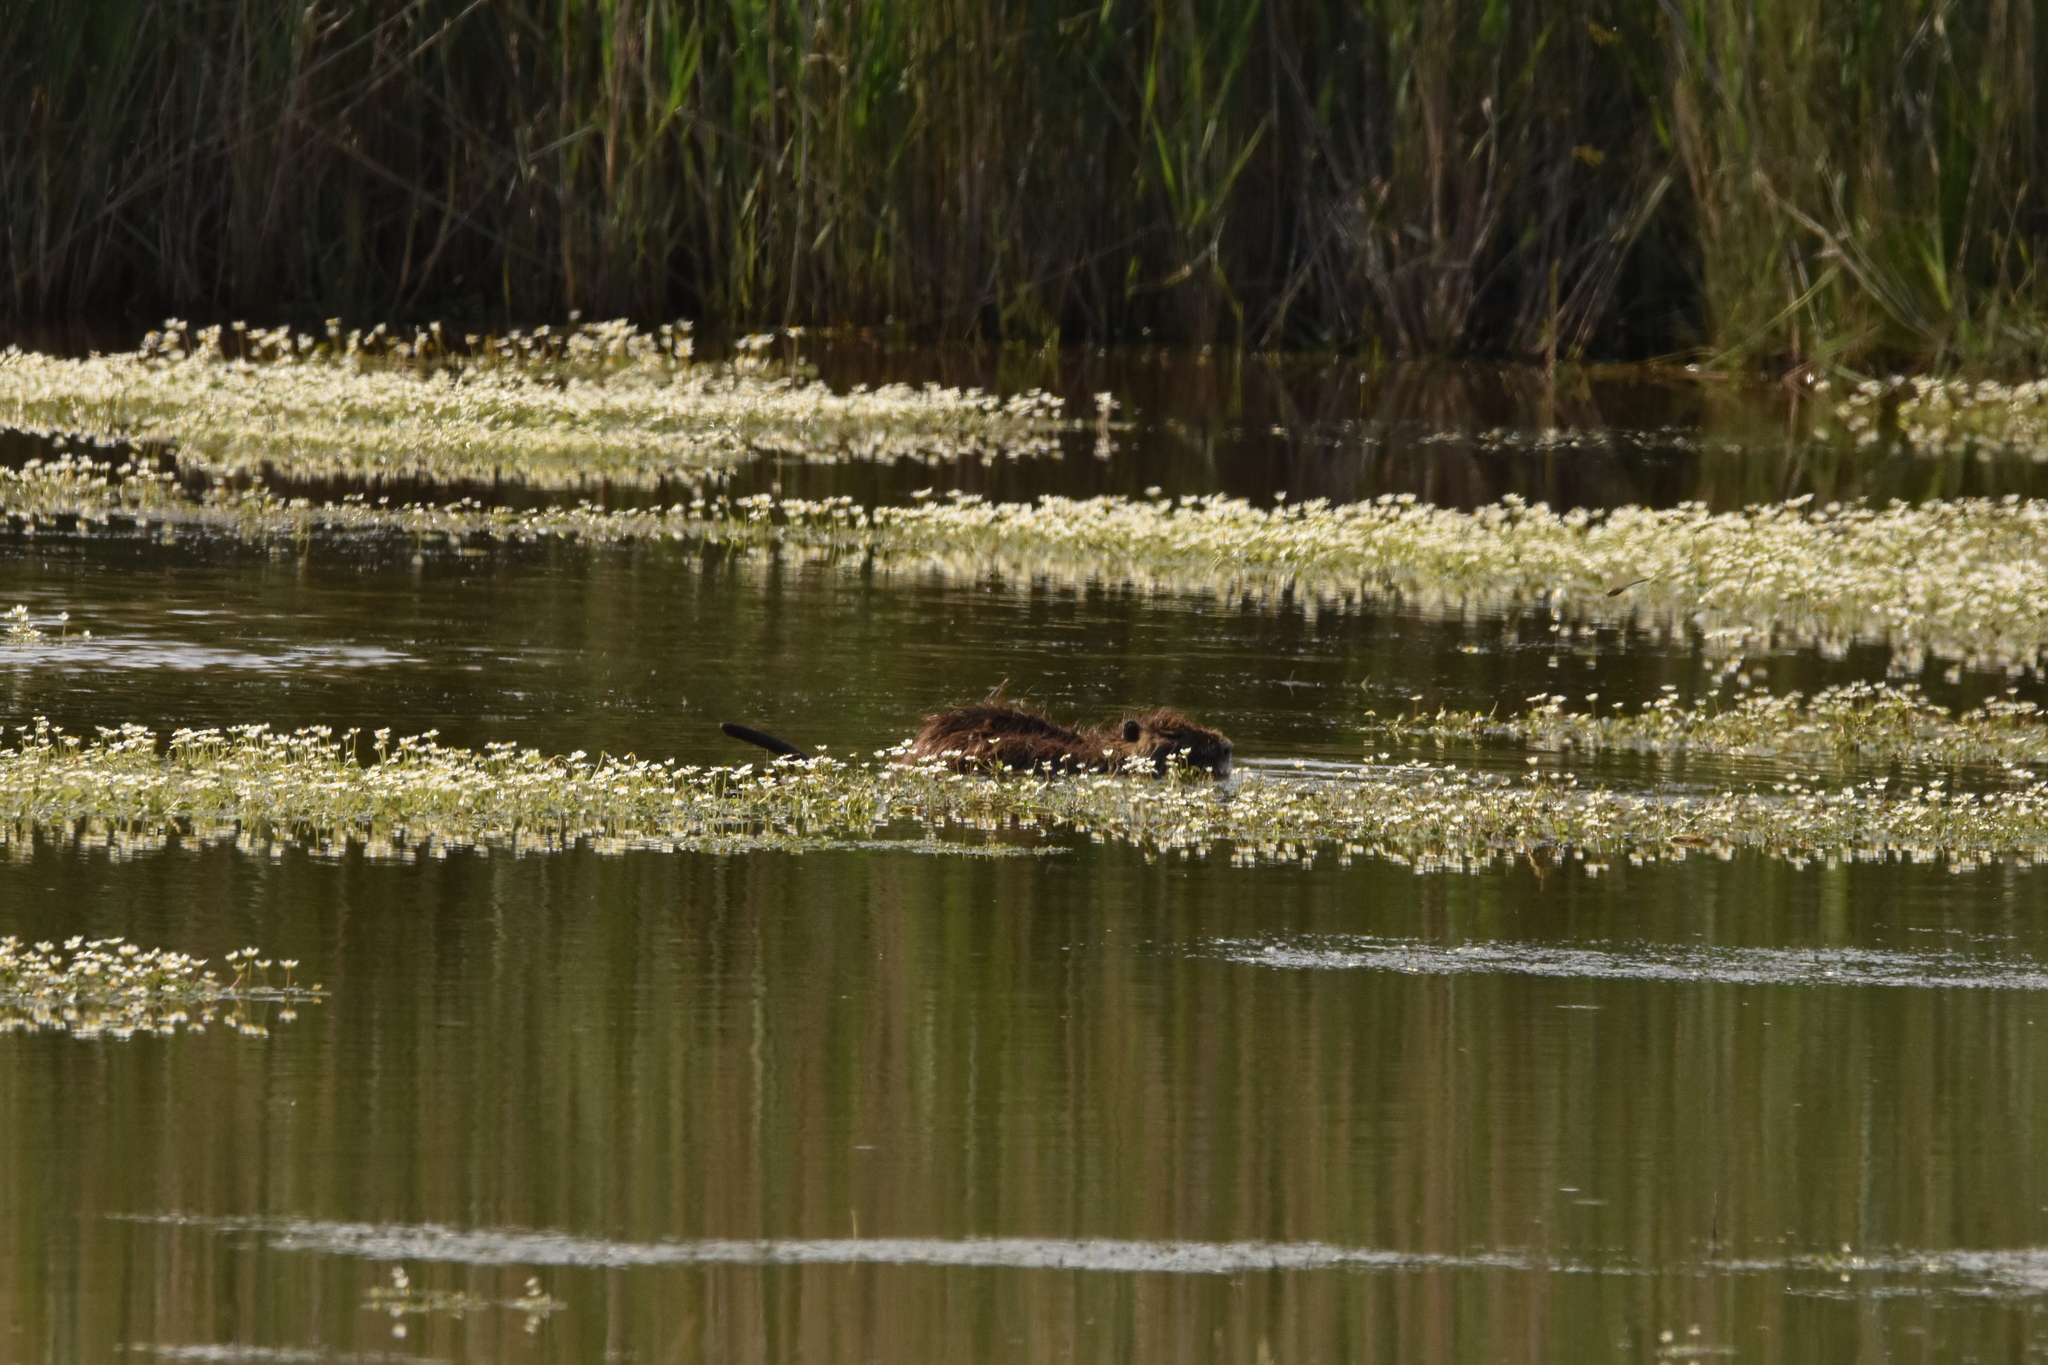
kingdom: Animalia
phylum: Chordata
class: Mammalia
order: Rodentia
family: Myocastoridae
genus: Myocastor
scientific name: Myocastor coypus
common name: Coypu
